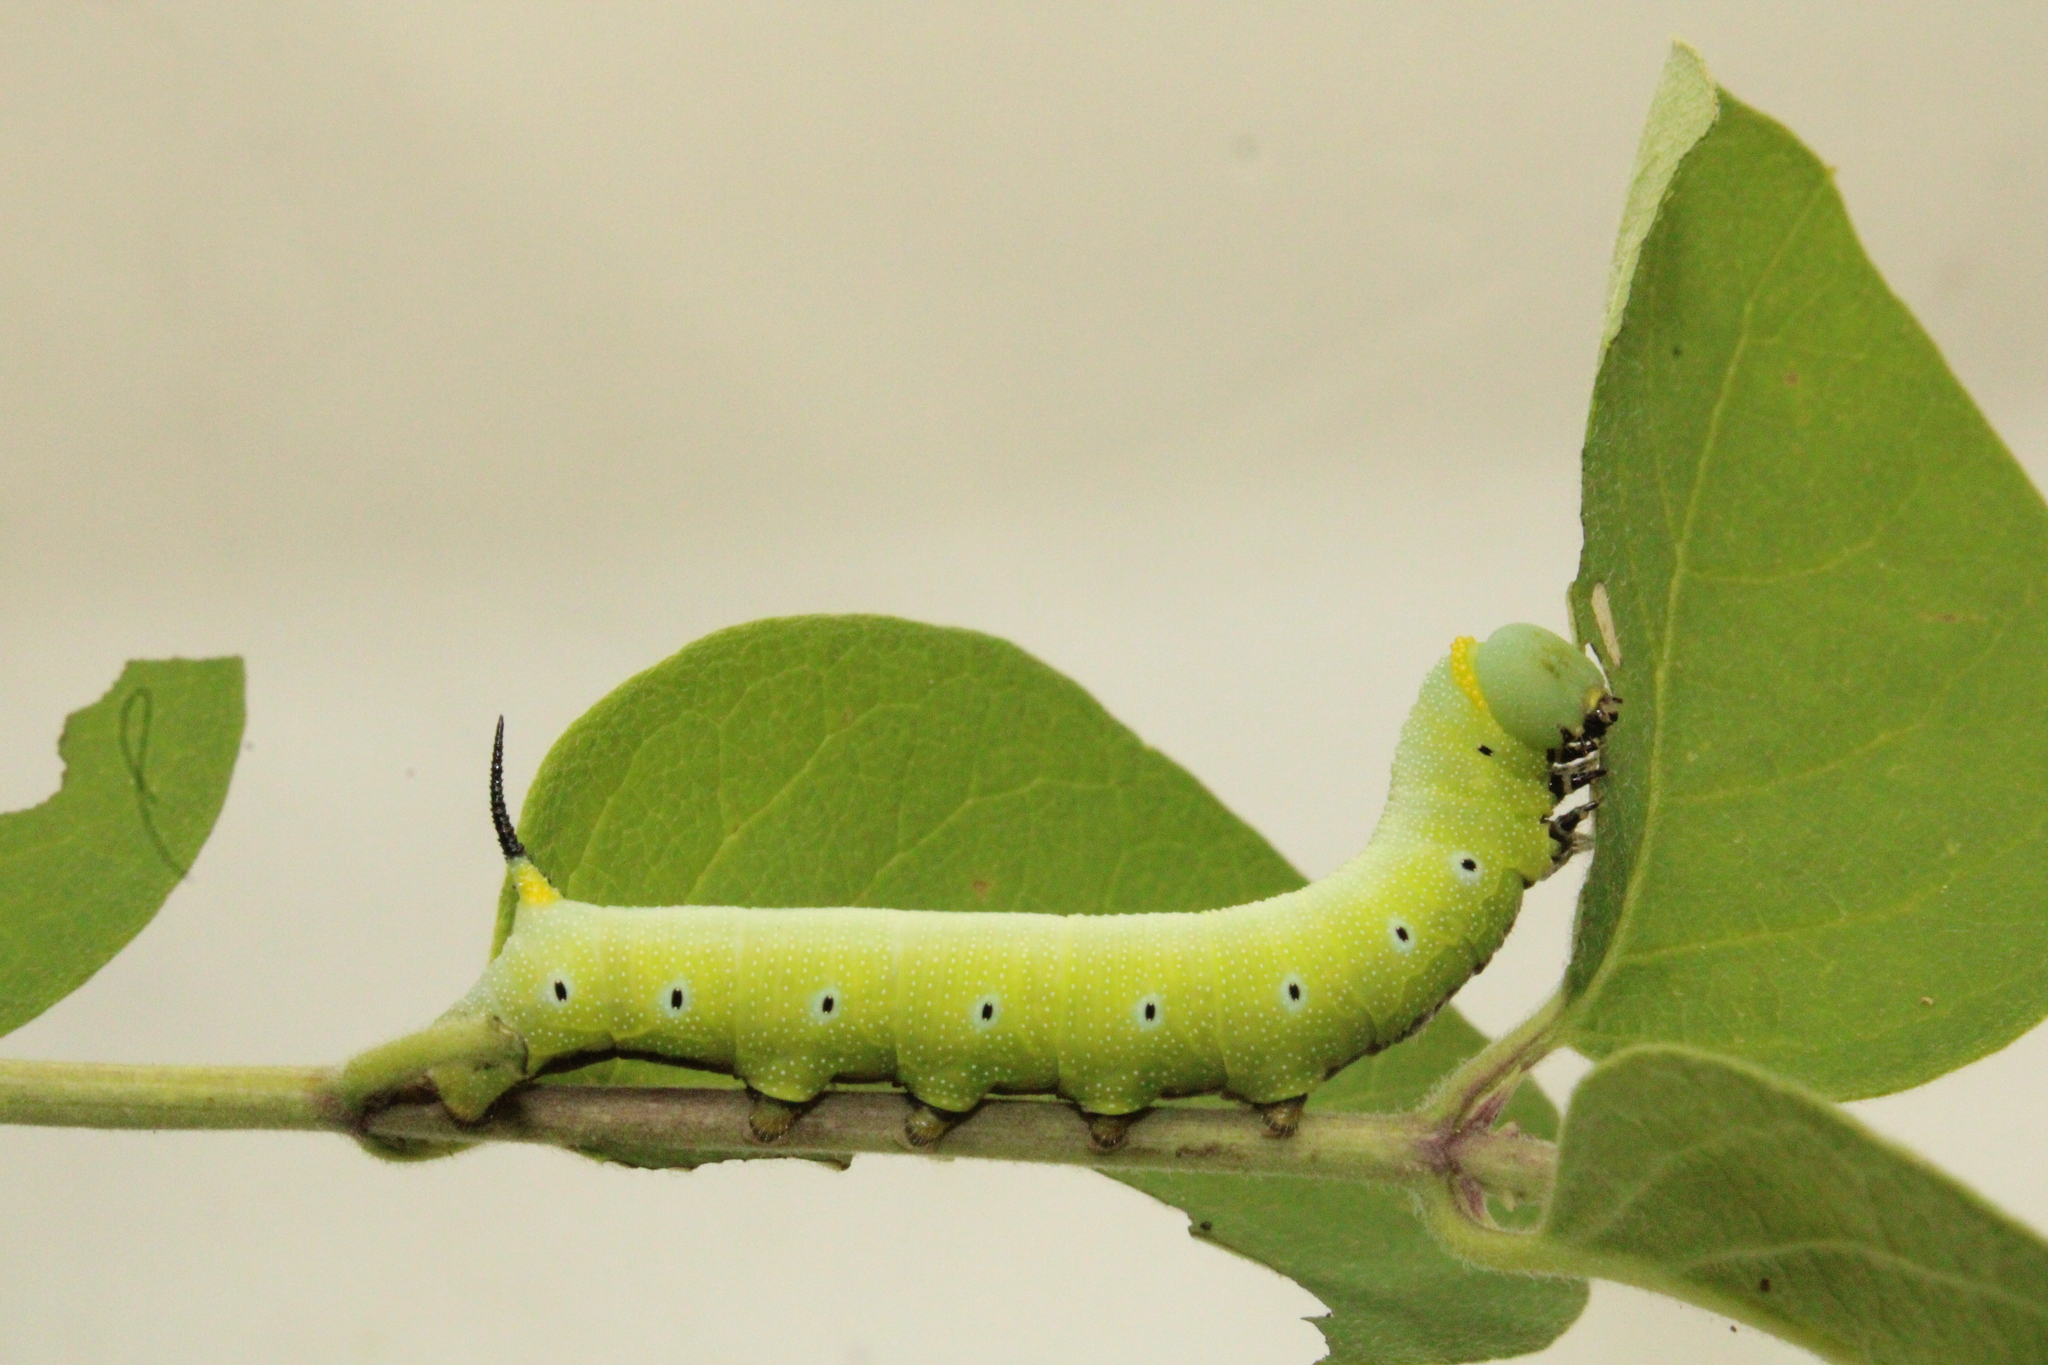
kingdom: Animalia
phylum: Arthropoda
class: Insecta
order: Lepidoptera
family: Sphingidae
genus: Hemaris
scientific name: Hemaris diffinis
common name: Bumblebee moth
